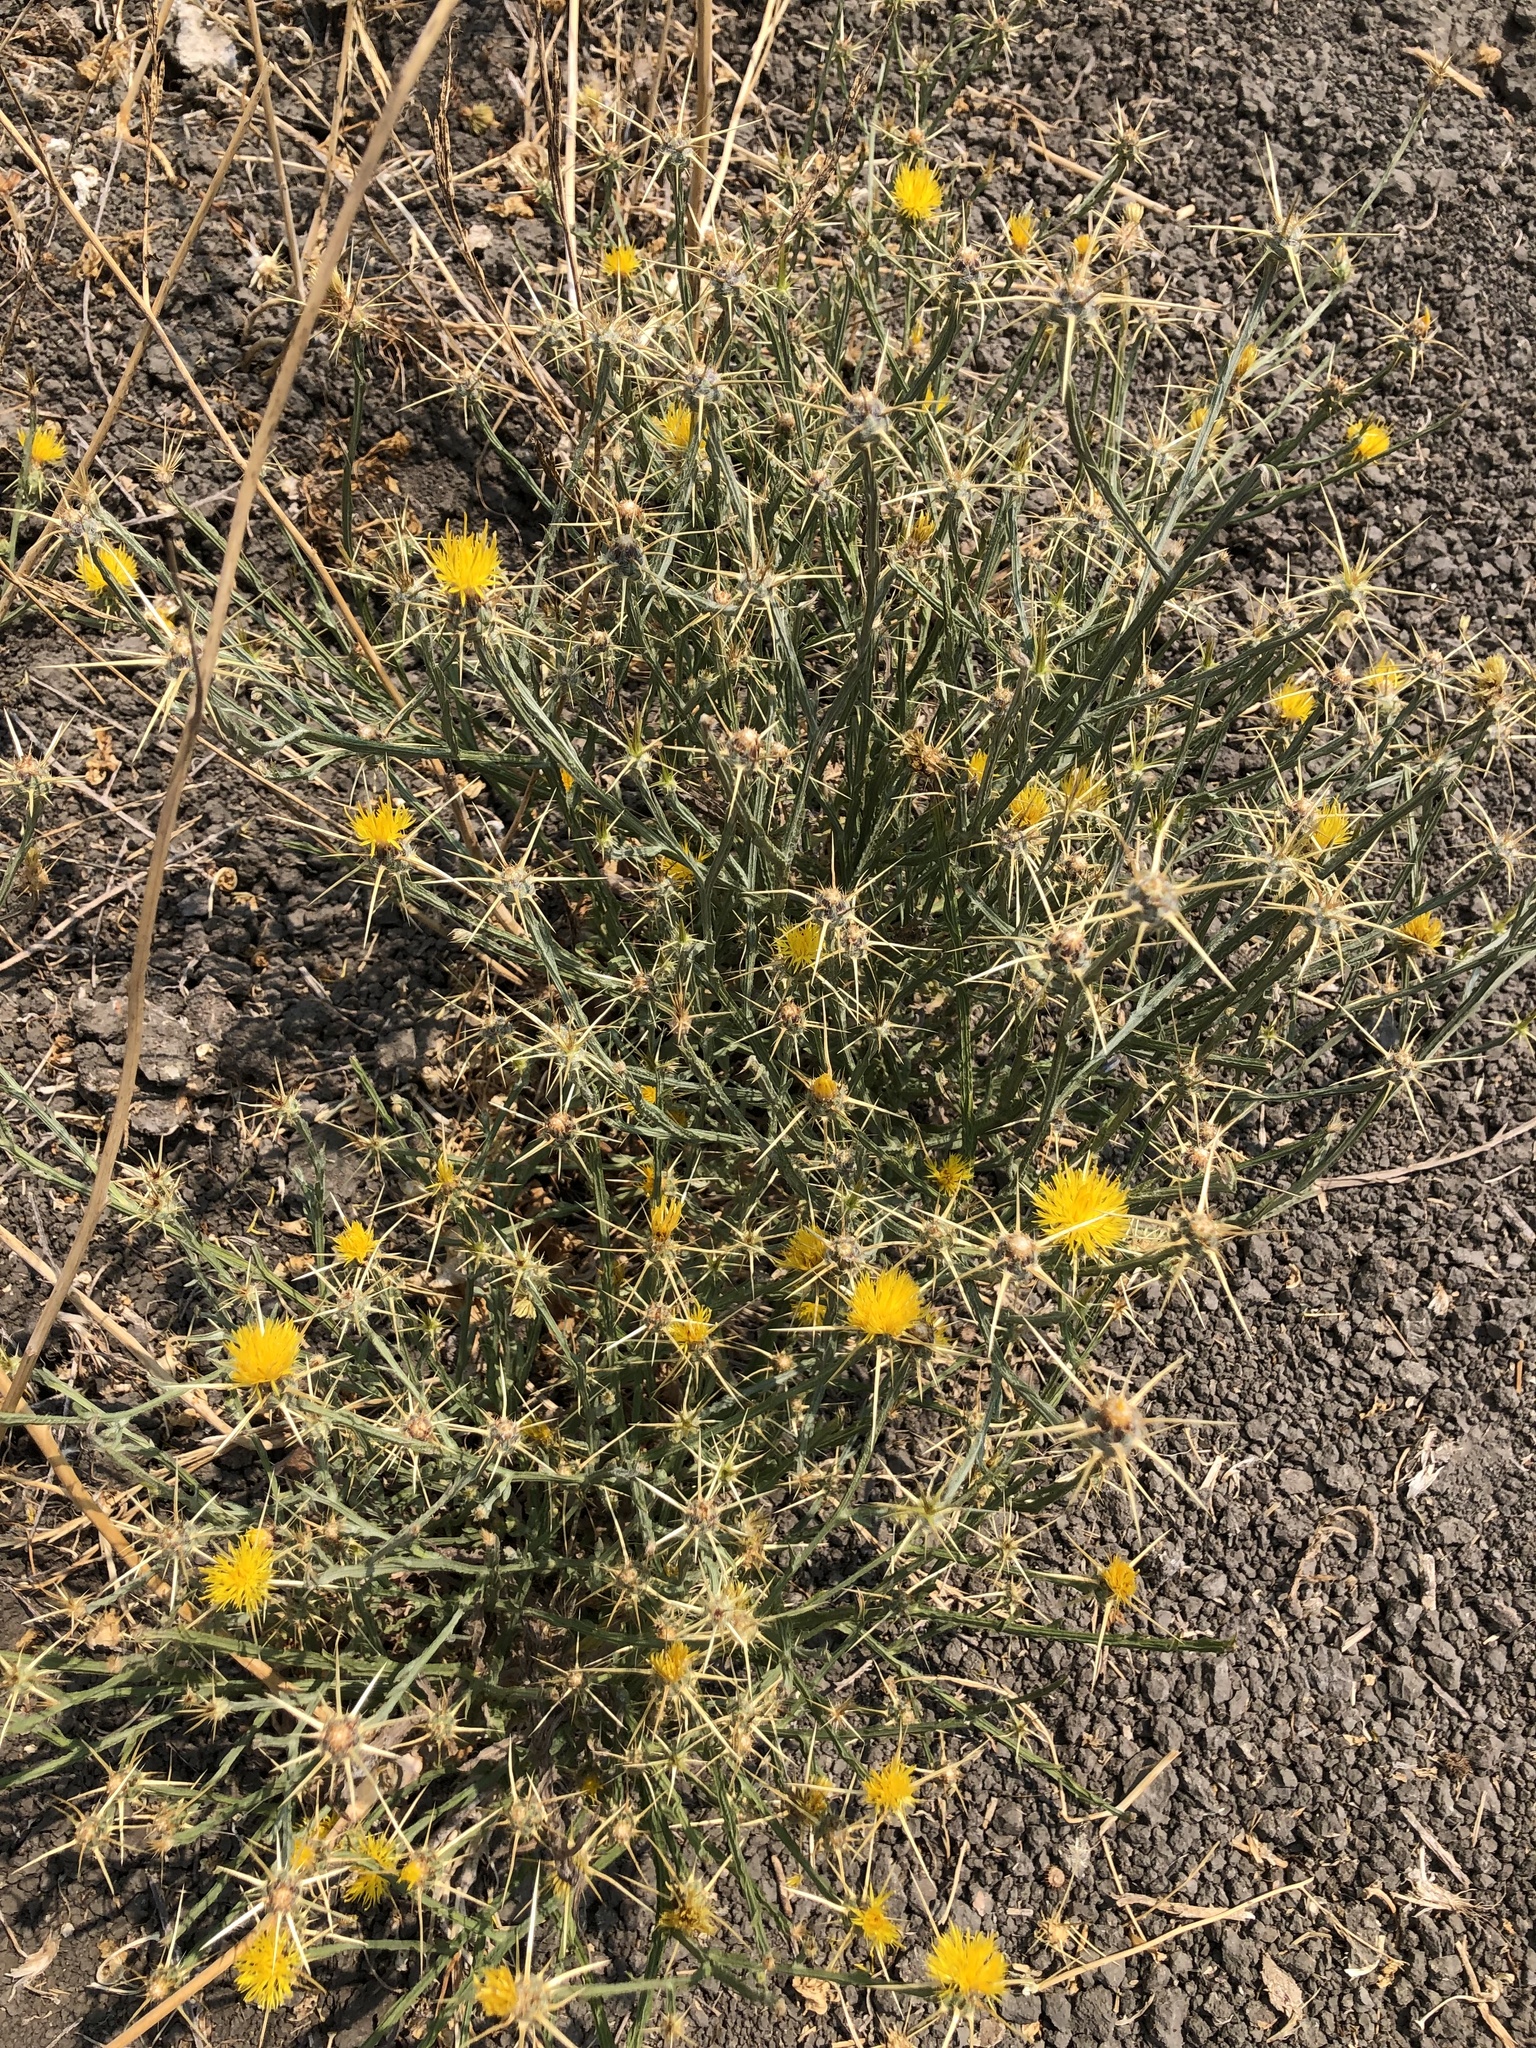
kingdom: Plantae
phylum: Tracheophyta
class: Magnoliopsida
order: Asterales
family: Asteraceae
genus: Centaurea
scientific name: Centaurea solstitialis
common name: Yellow star-thistle
